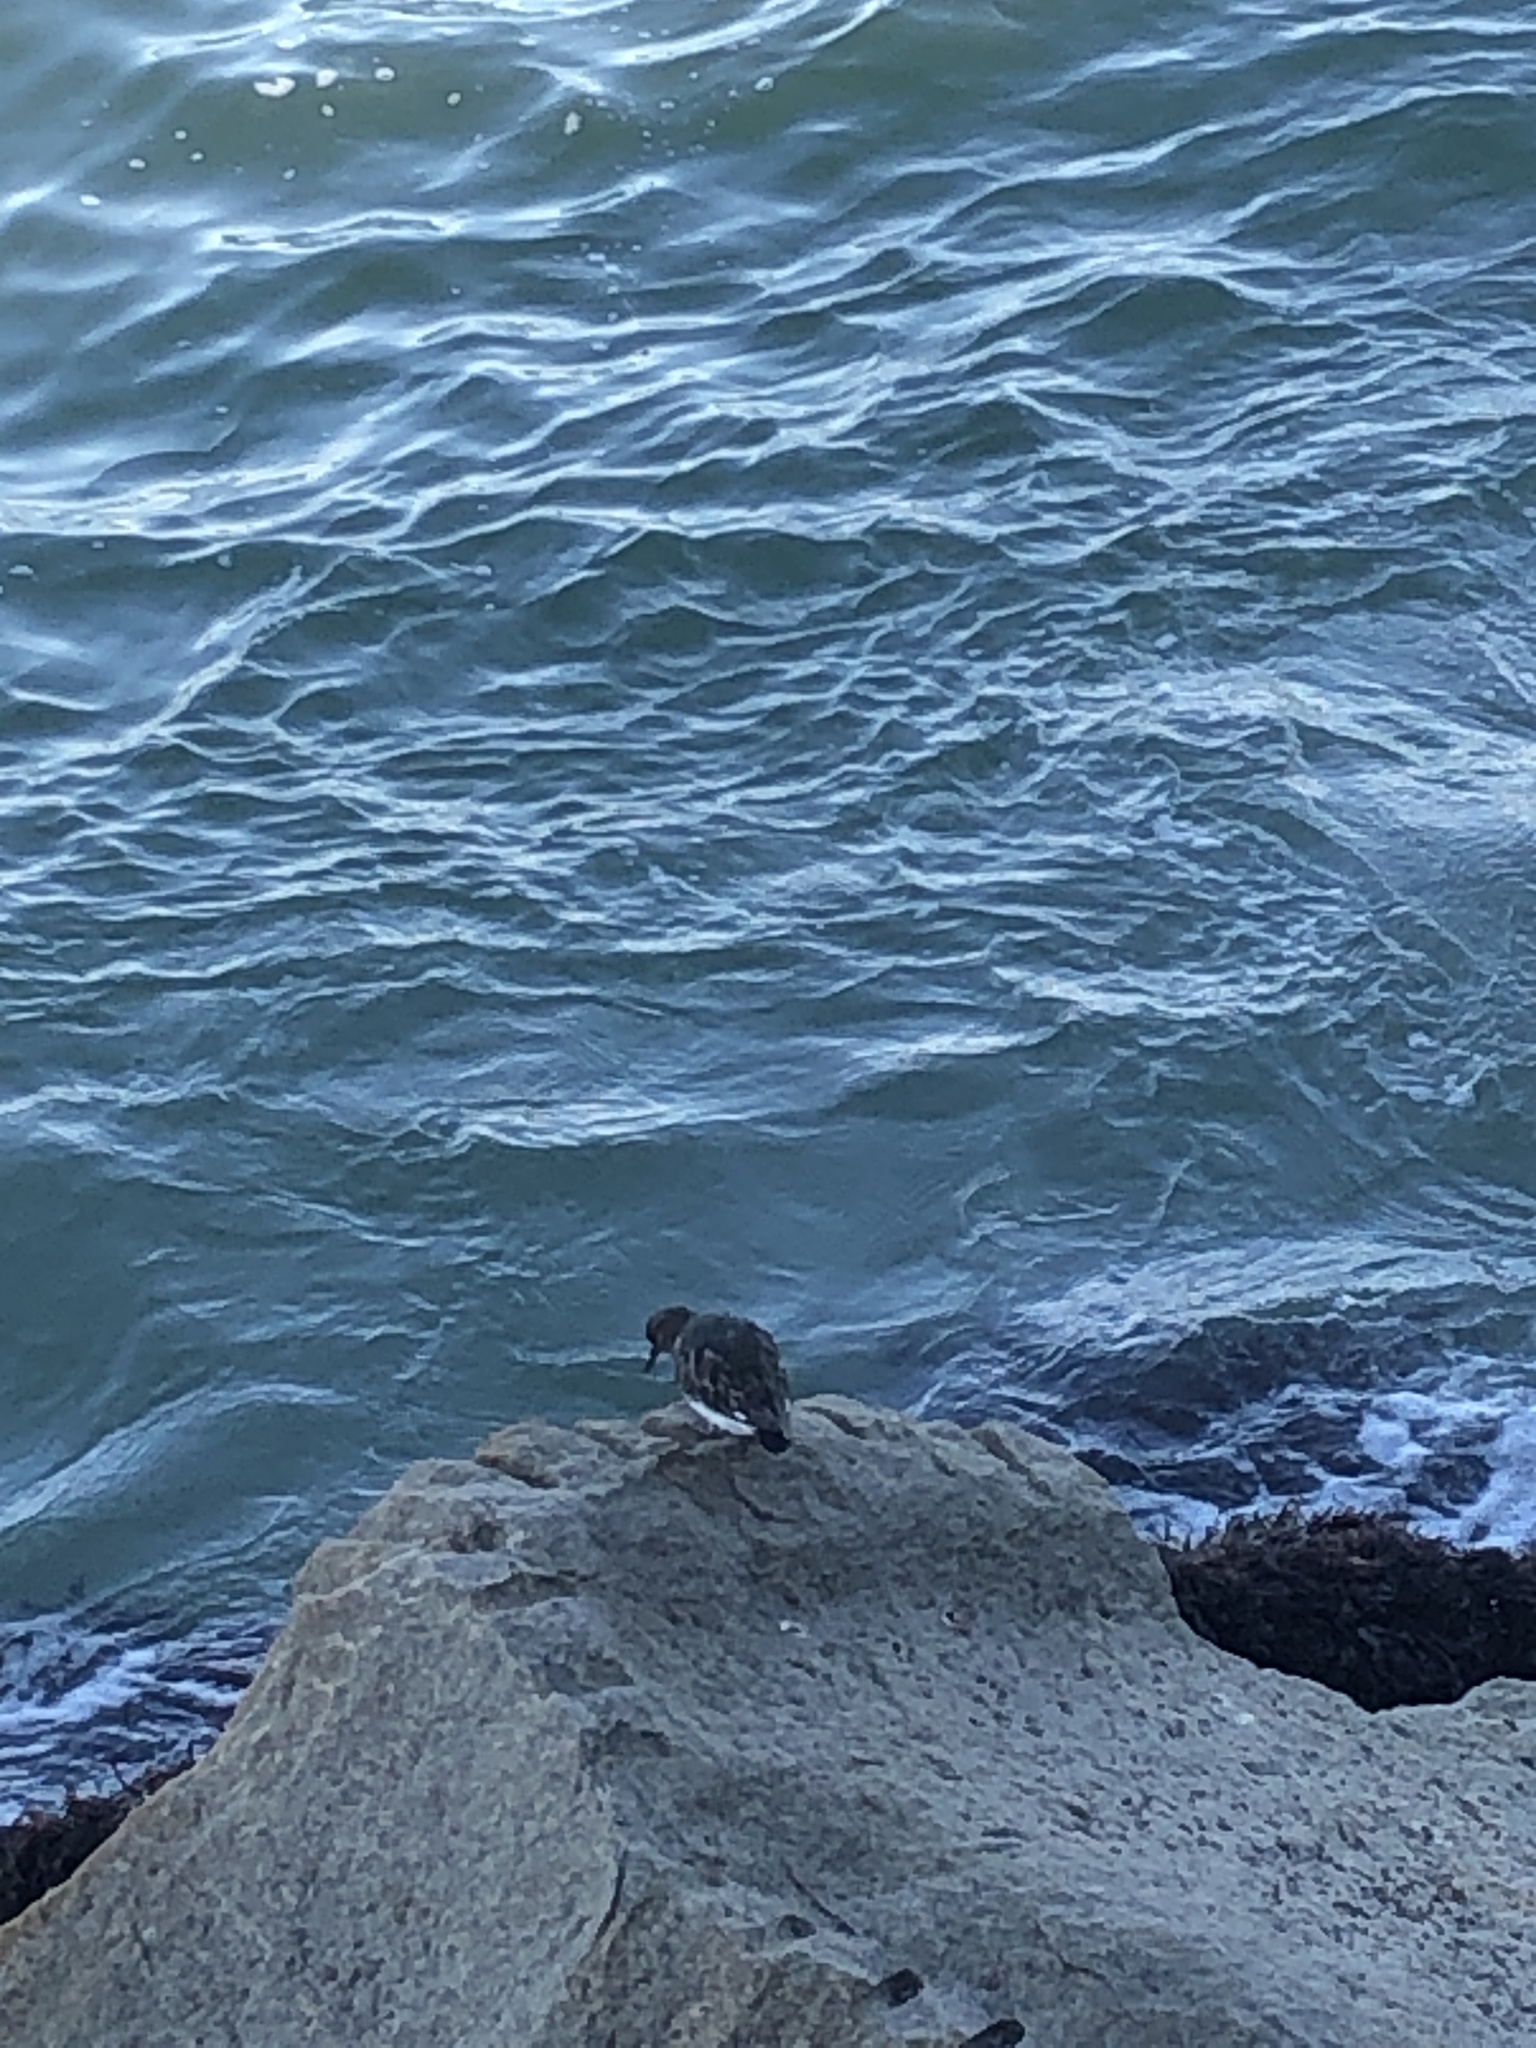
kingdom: Animalia
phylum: Chordata
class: Aves
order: Charadriiformes
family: Scolopacidae
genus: Arenaria
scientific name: Arenaria melanocephala
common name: Black turnstone
